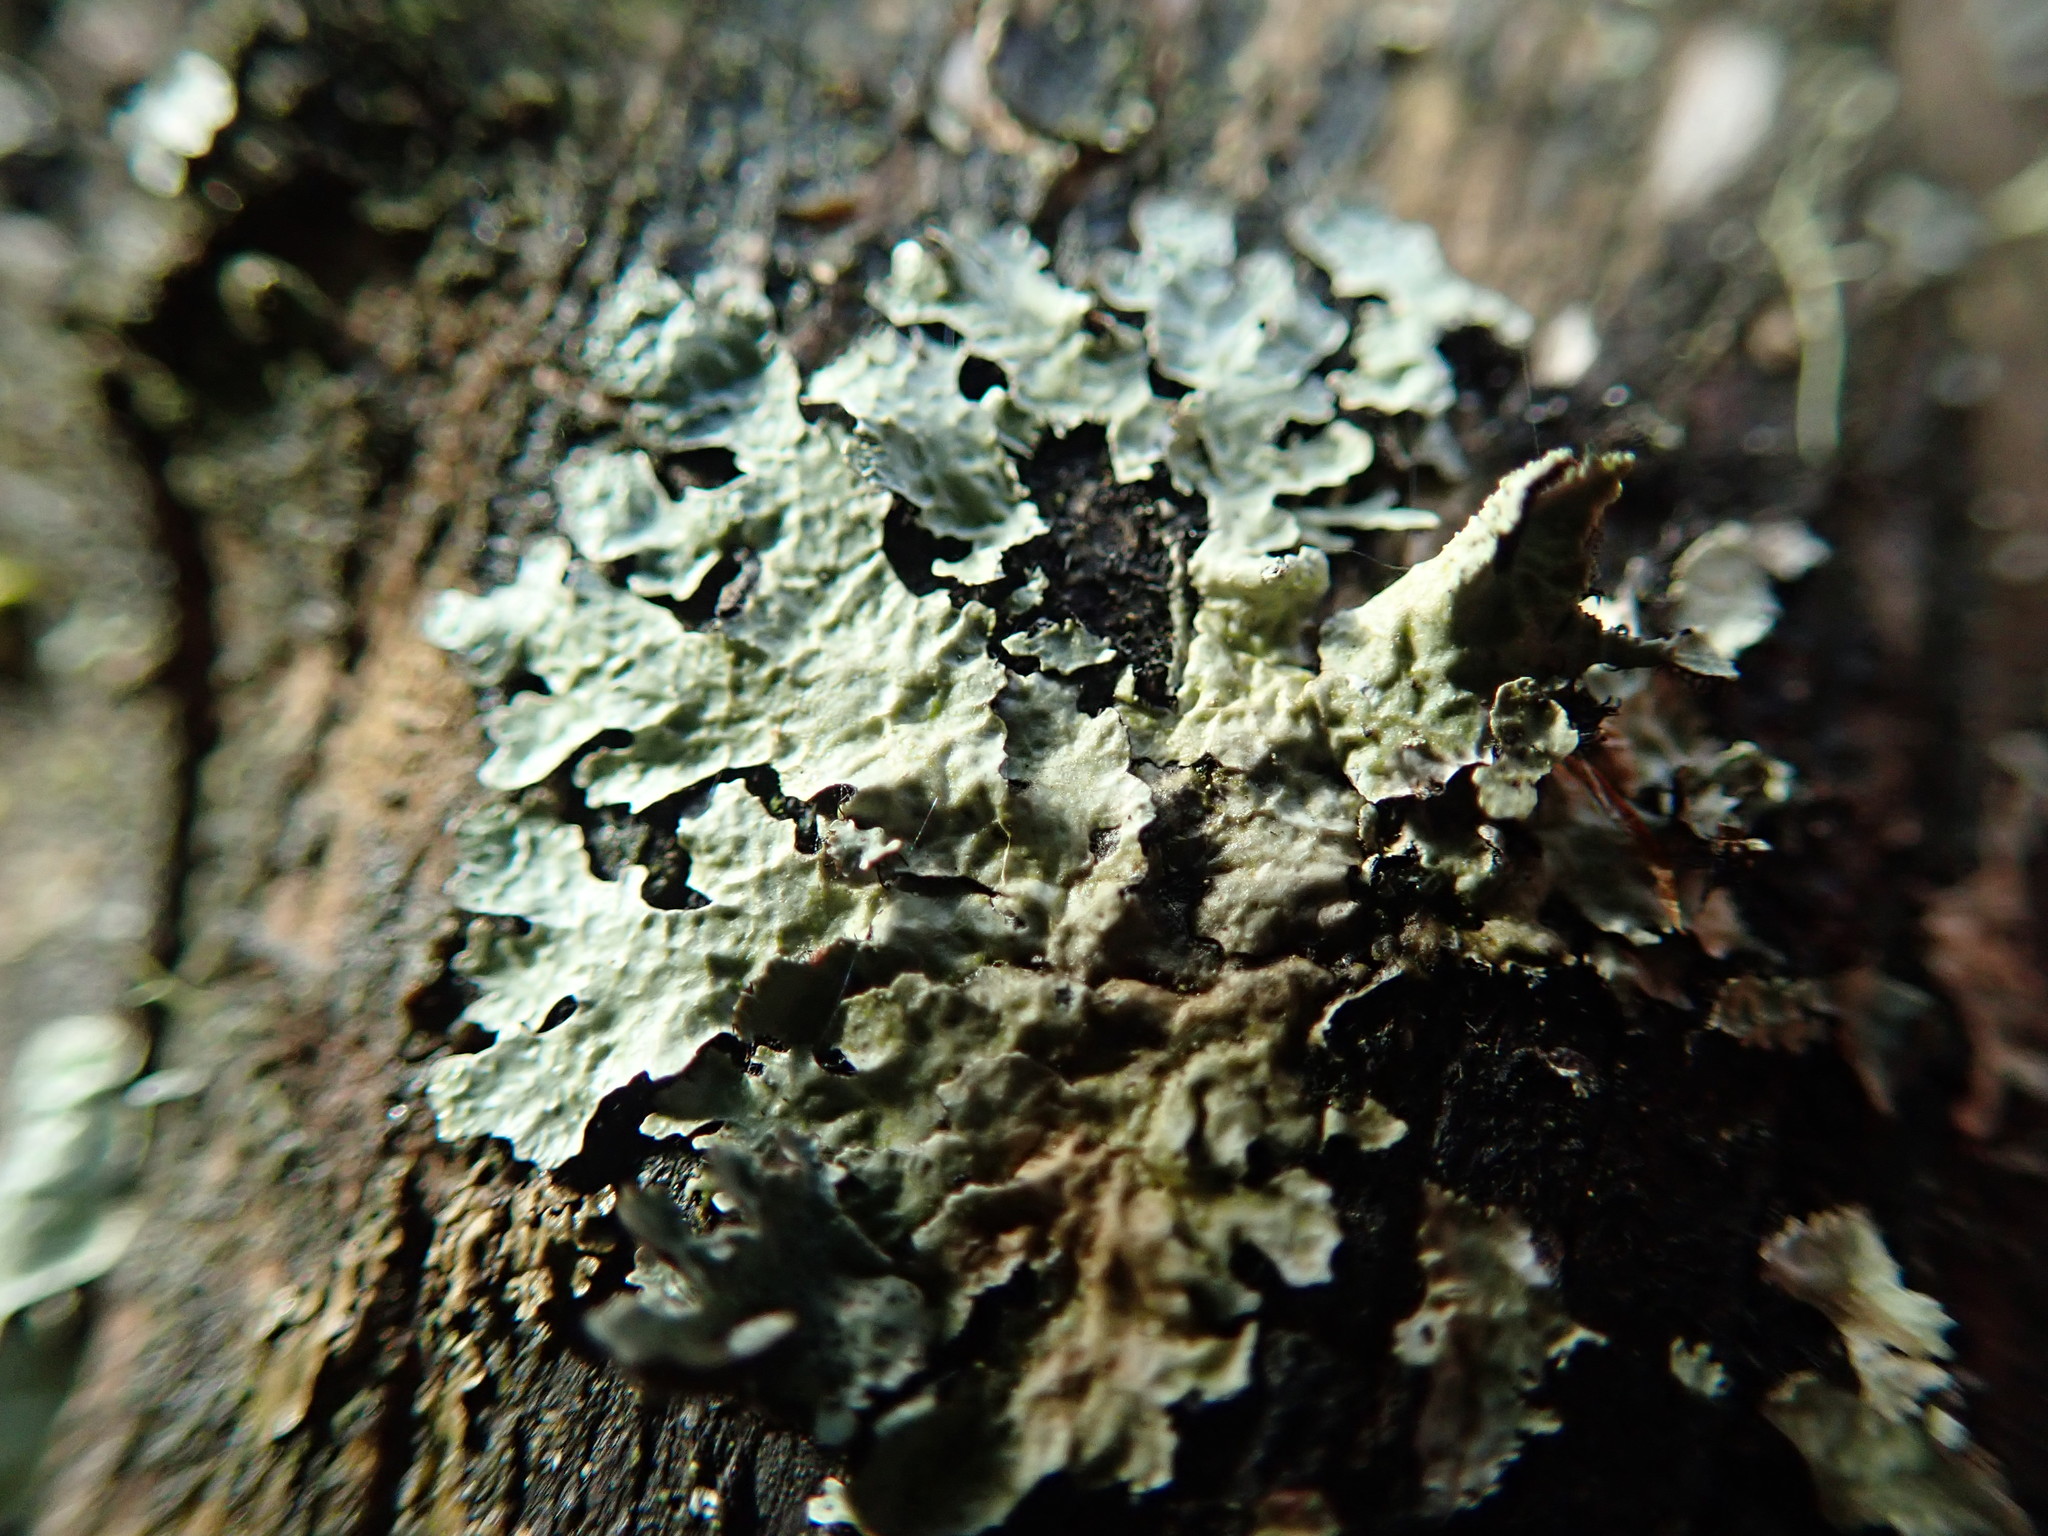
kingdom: Fungi
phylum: Ascomycota
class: Lecanoromycetes
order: Lecanorales
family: Parmeliaceae
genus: Parmelia
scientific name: Parmelia sulcata
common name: Netted shield lichen
